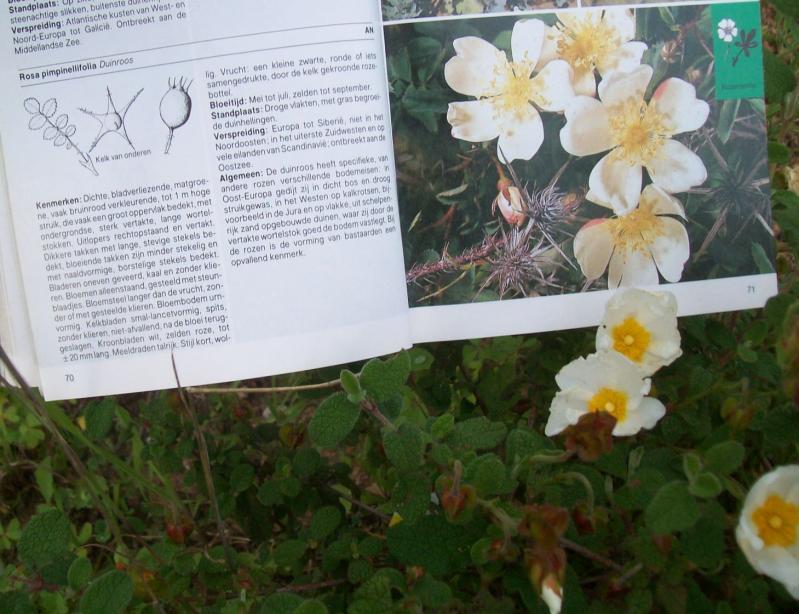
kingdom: Plantae
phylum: Tracheophyta
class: Magnoliopsida
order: Malvales
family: Cistaceae
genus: Cistus
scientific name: Cistus salviifolius
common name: Salvia cistus
